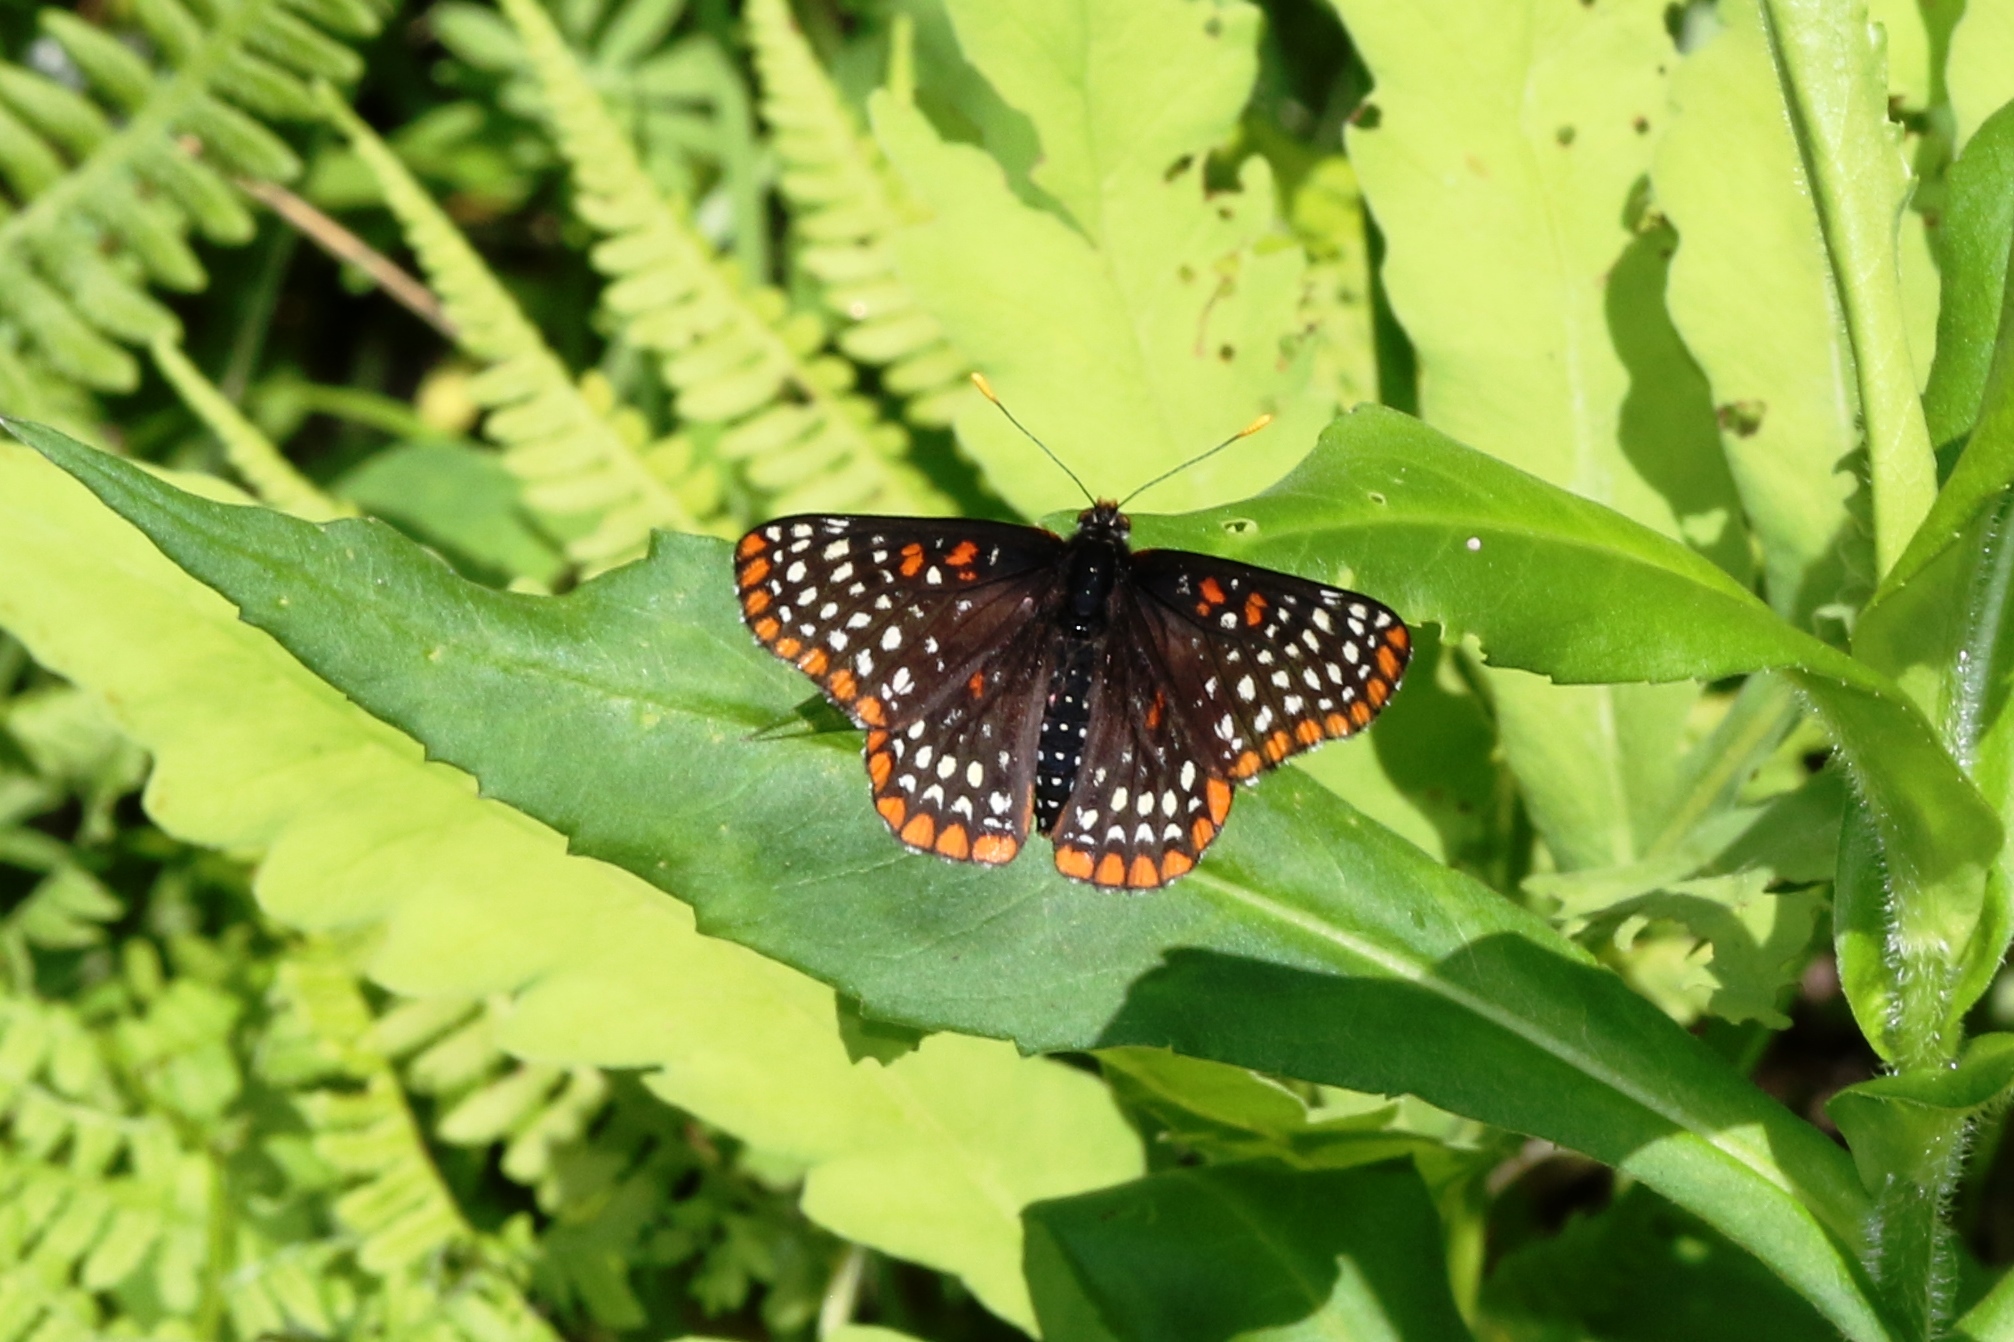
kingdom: Animalia
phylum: Arthropoda
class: Insecta
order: Lepidoptera
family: Nymphalidae
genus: Euphydryas
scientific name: Euphydryas phaeton
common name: Baltimore checkerspot
